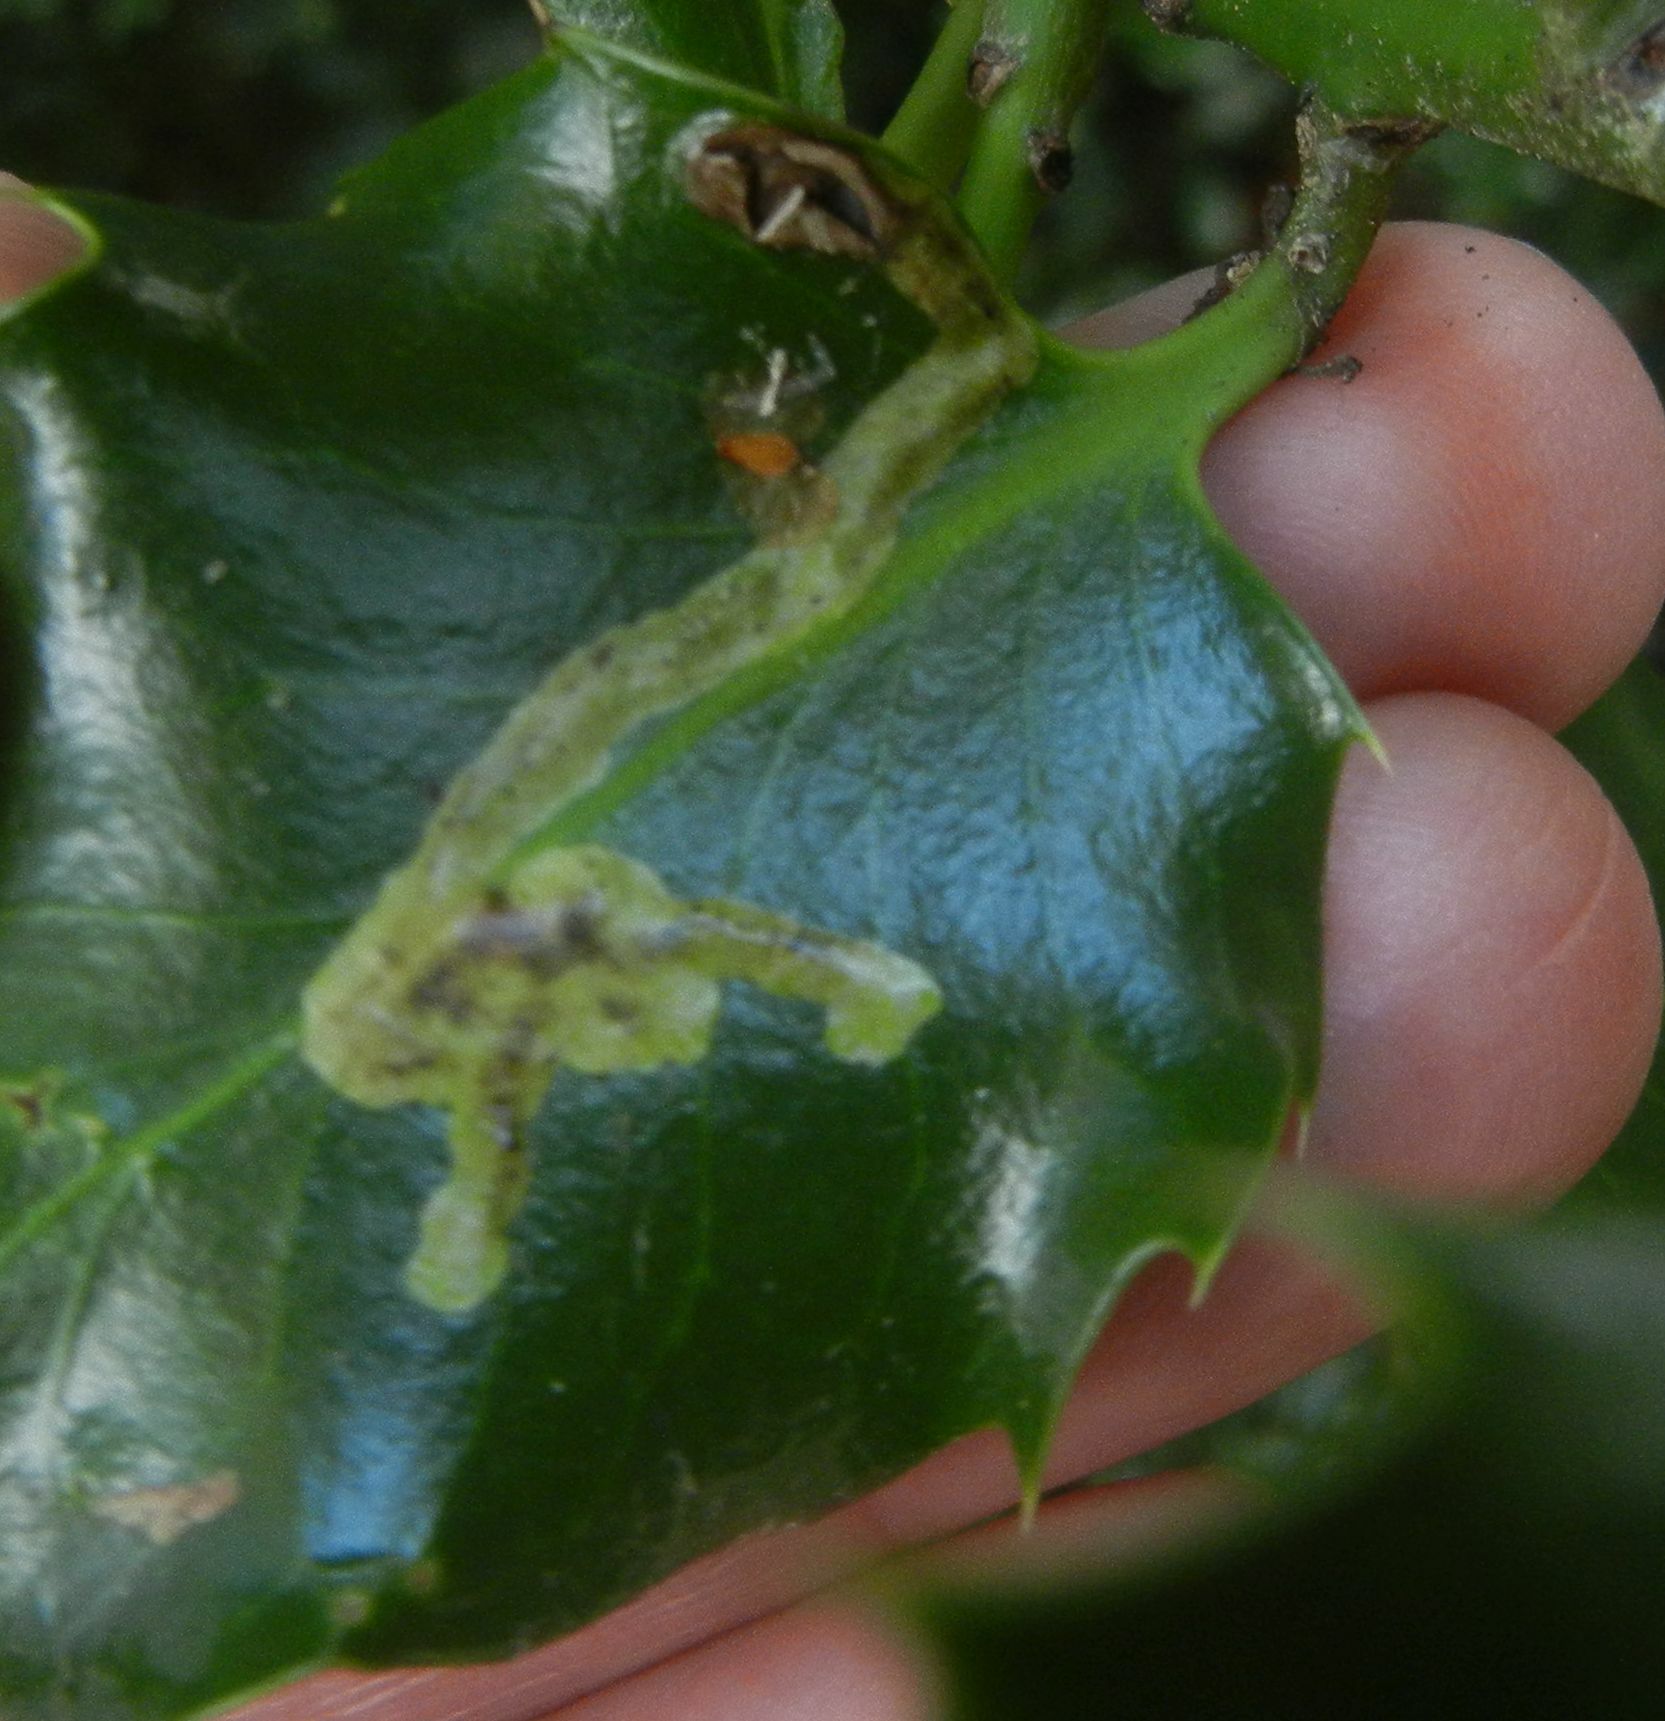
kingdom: Animalia
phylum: Arthropoda
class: Insecta
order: Diptera
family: Agromyzidae
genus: Phytomyza
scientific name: Phytomyza ilicis
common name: Holly leafminer
